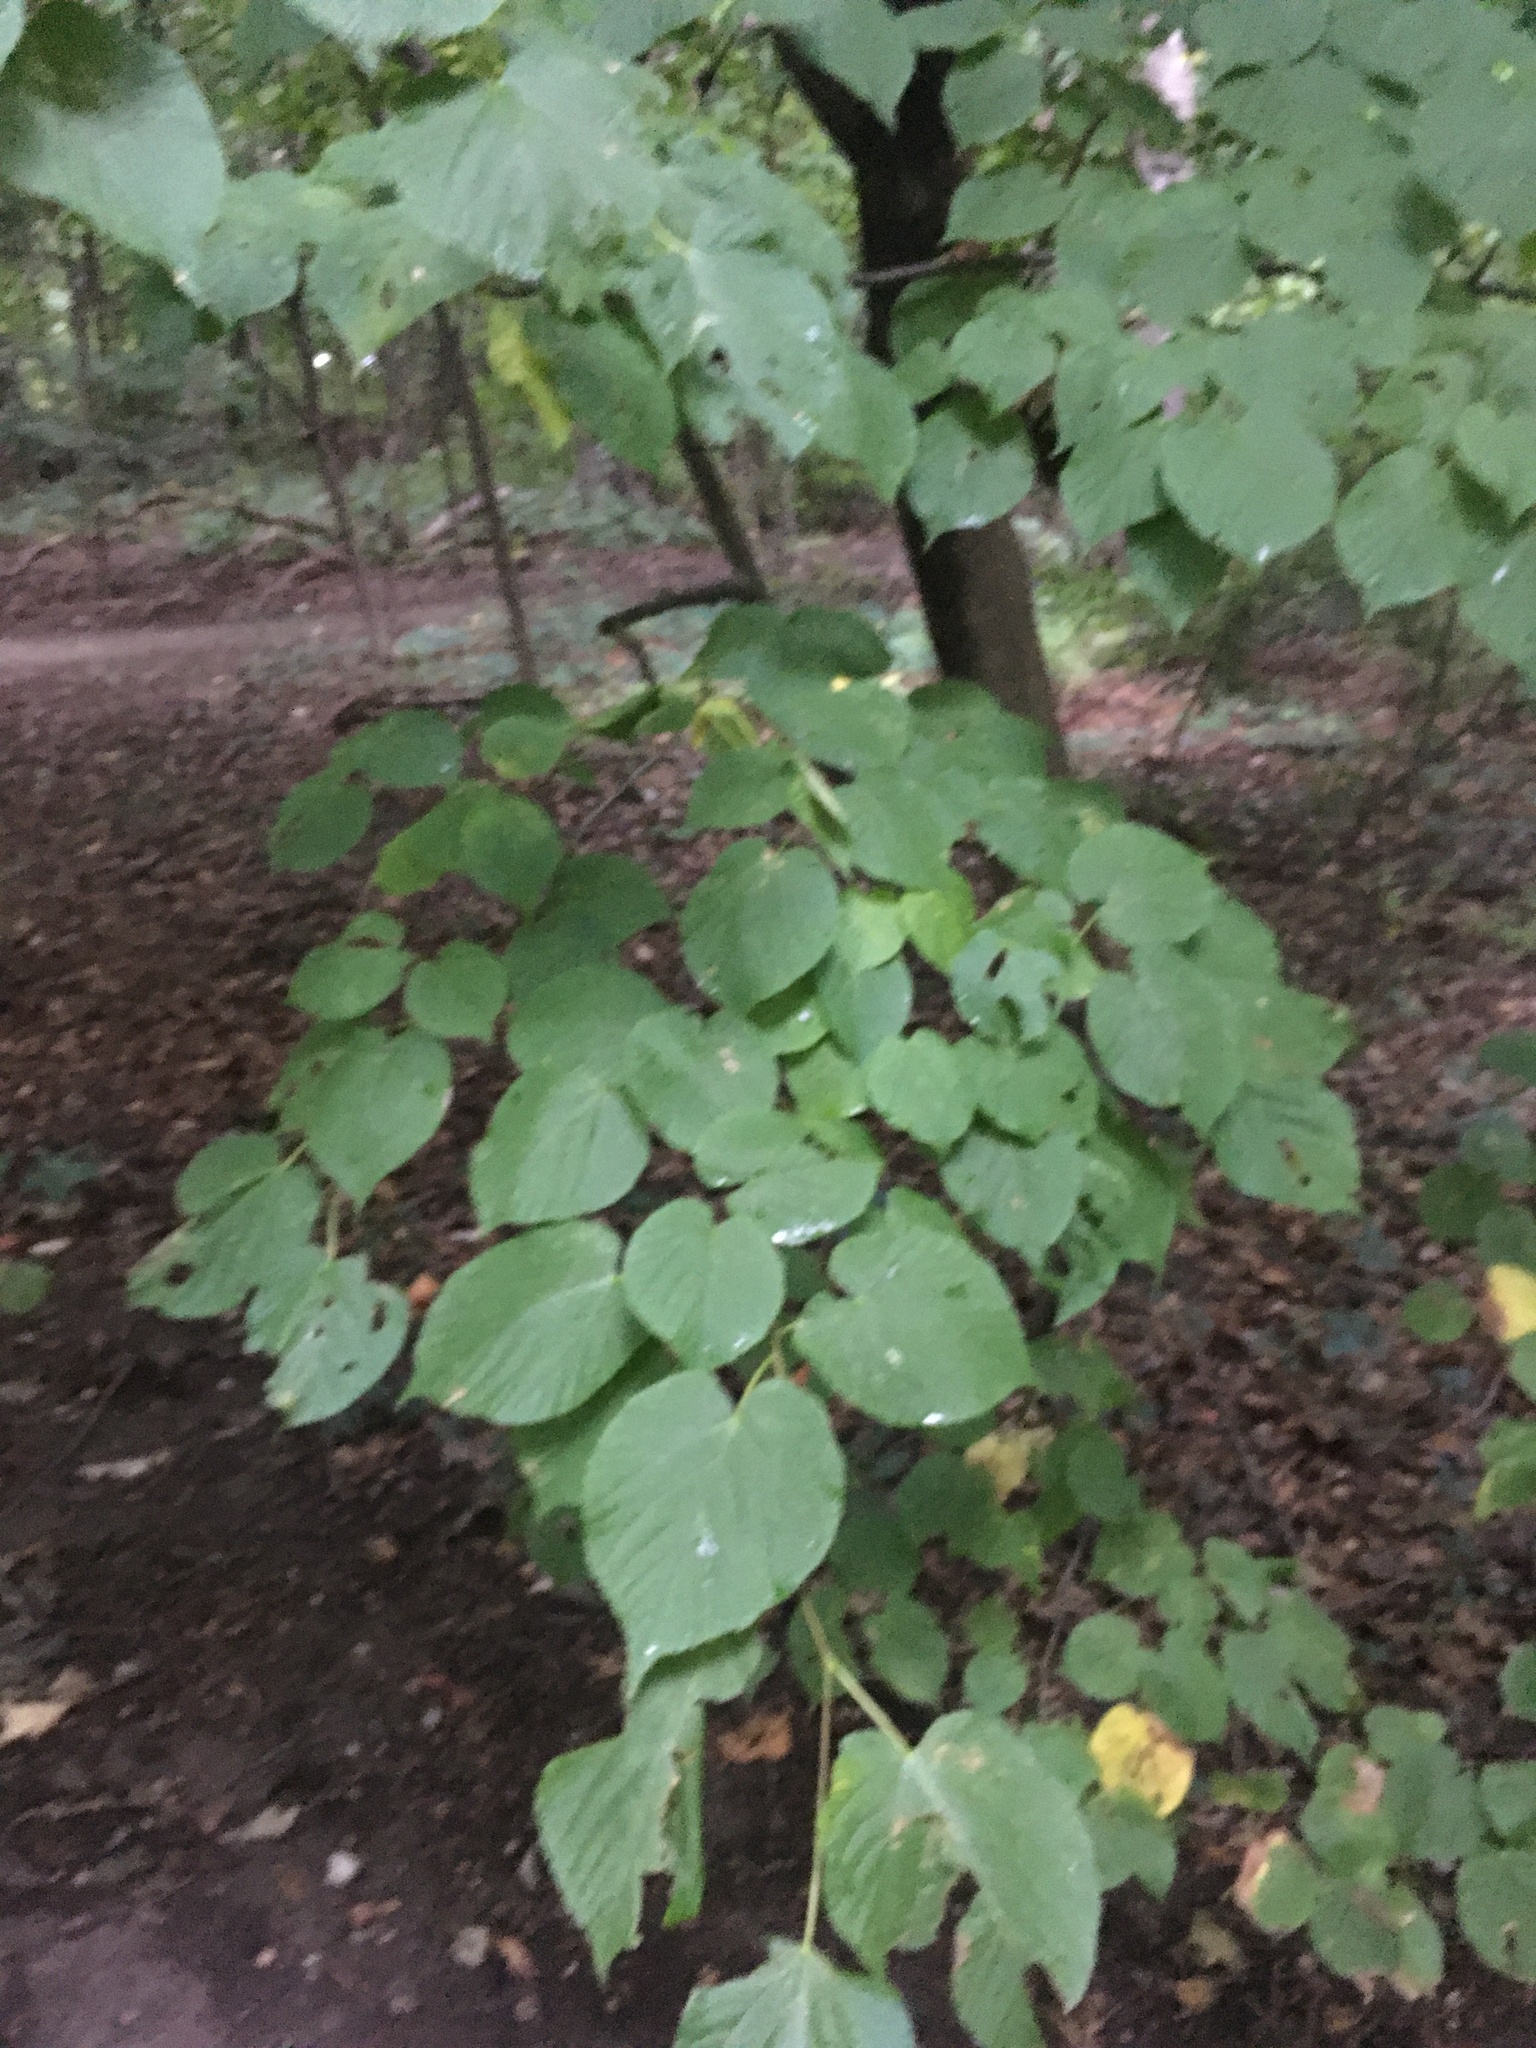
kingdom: Plantae
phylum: Tracheophyta
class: Magnoliopsida
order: Malvales
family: Malvaceae
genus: Tilia
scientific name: Tilia americana
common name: Basswood
